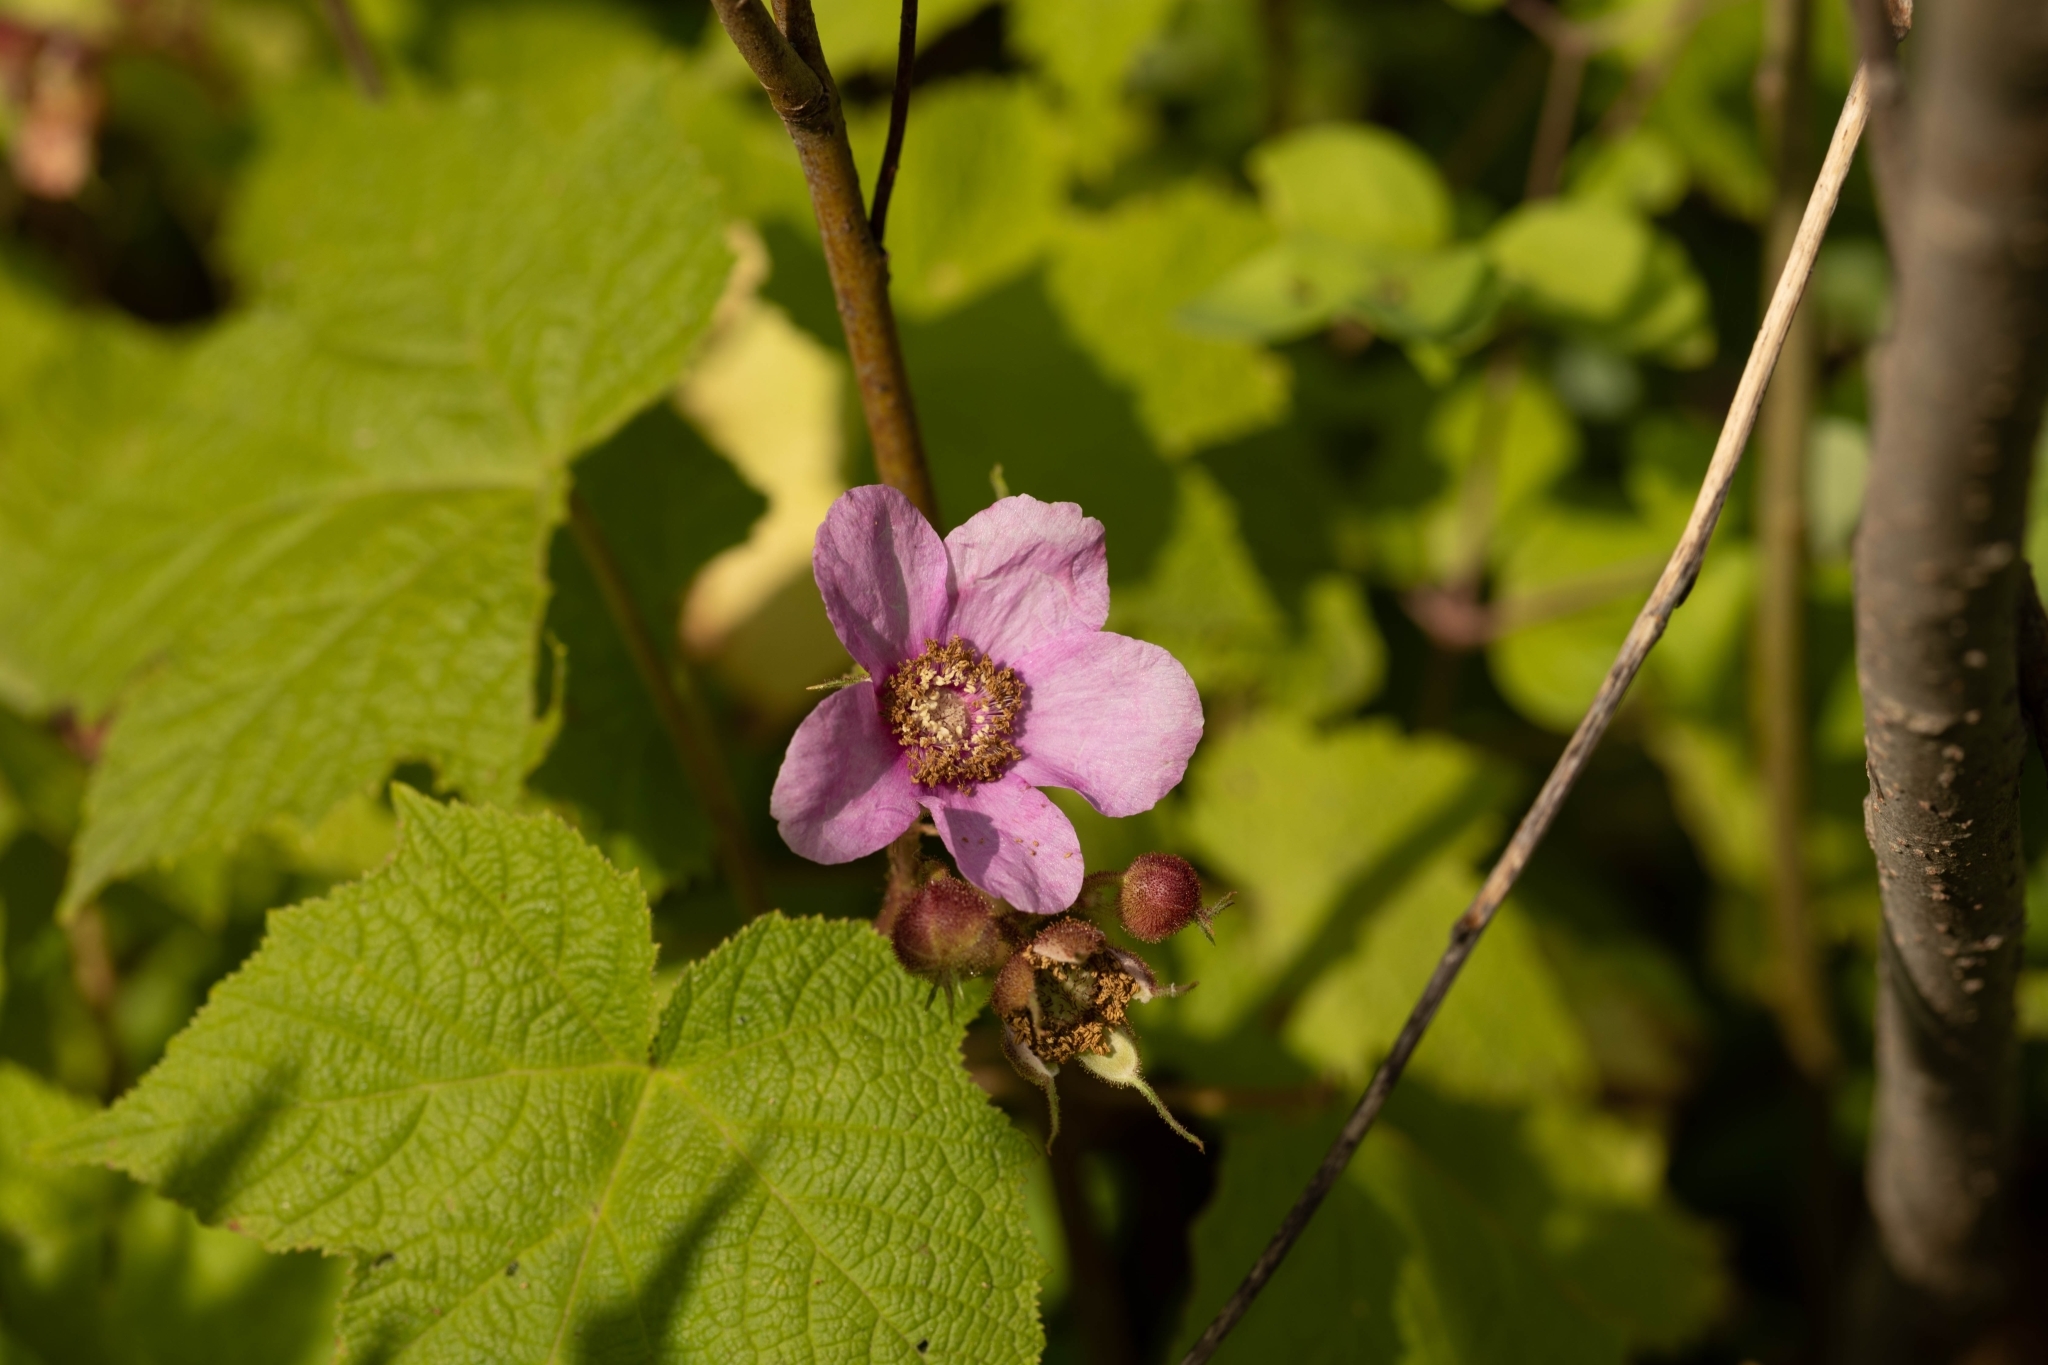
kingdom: Plantae
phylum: Tracheophyta
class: Magnoliopsida
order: Rosales
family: Rosaceae
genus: Rubus
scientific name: Rubus odoratus
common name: Purple-flowered raspberry
